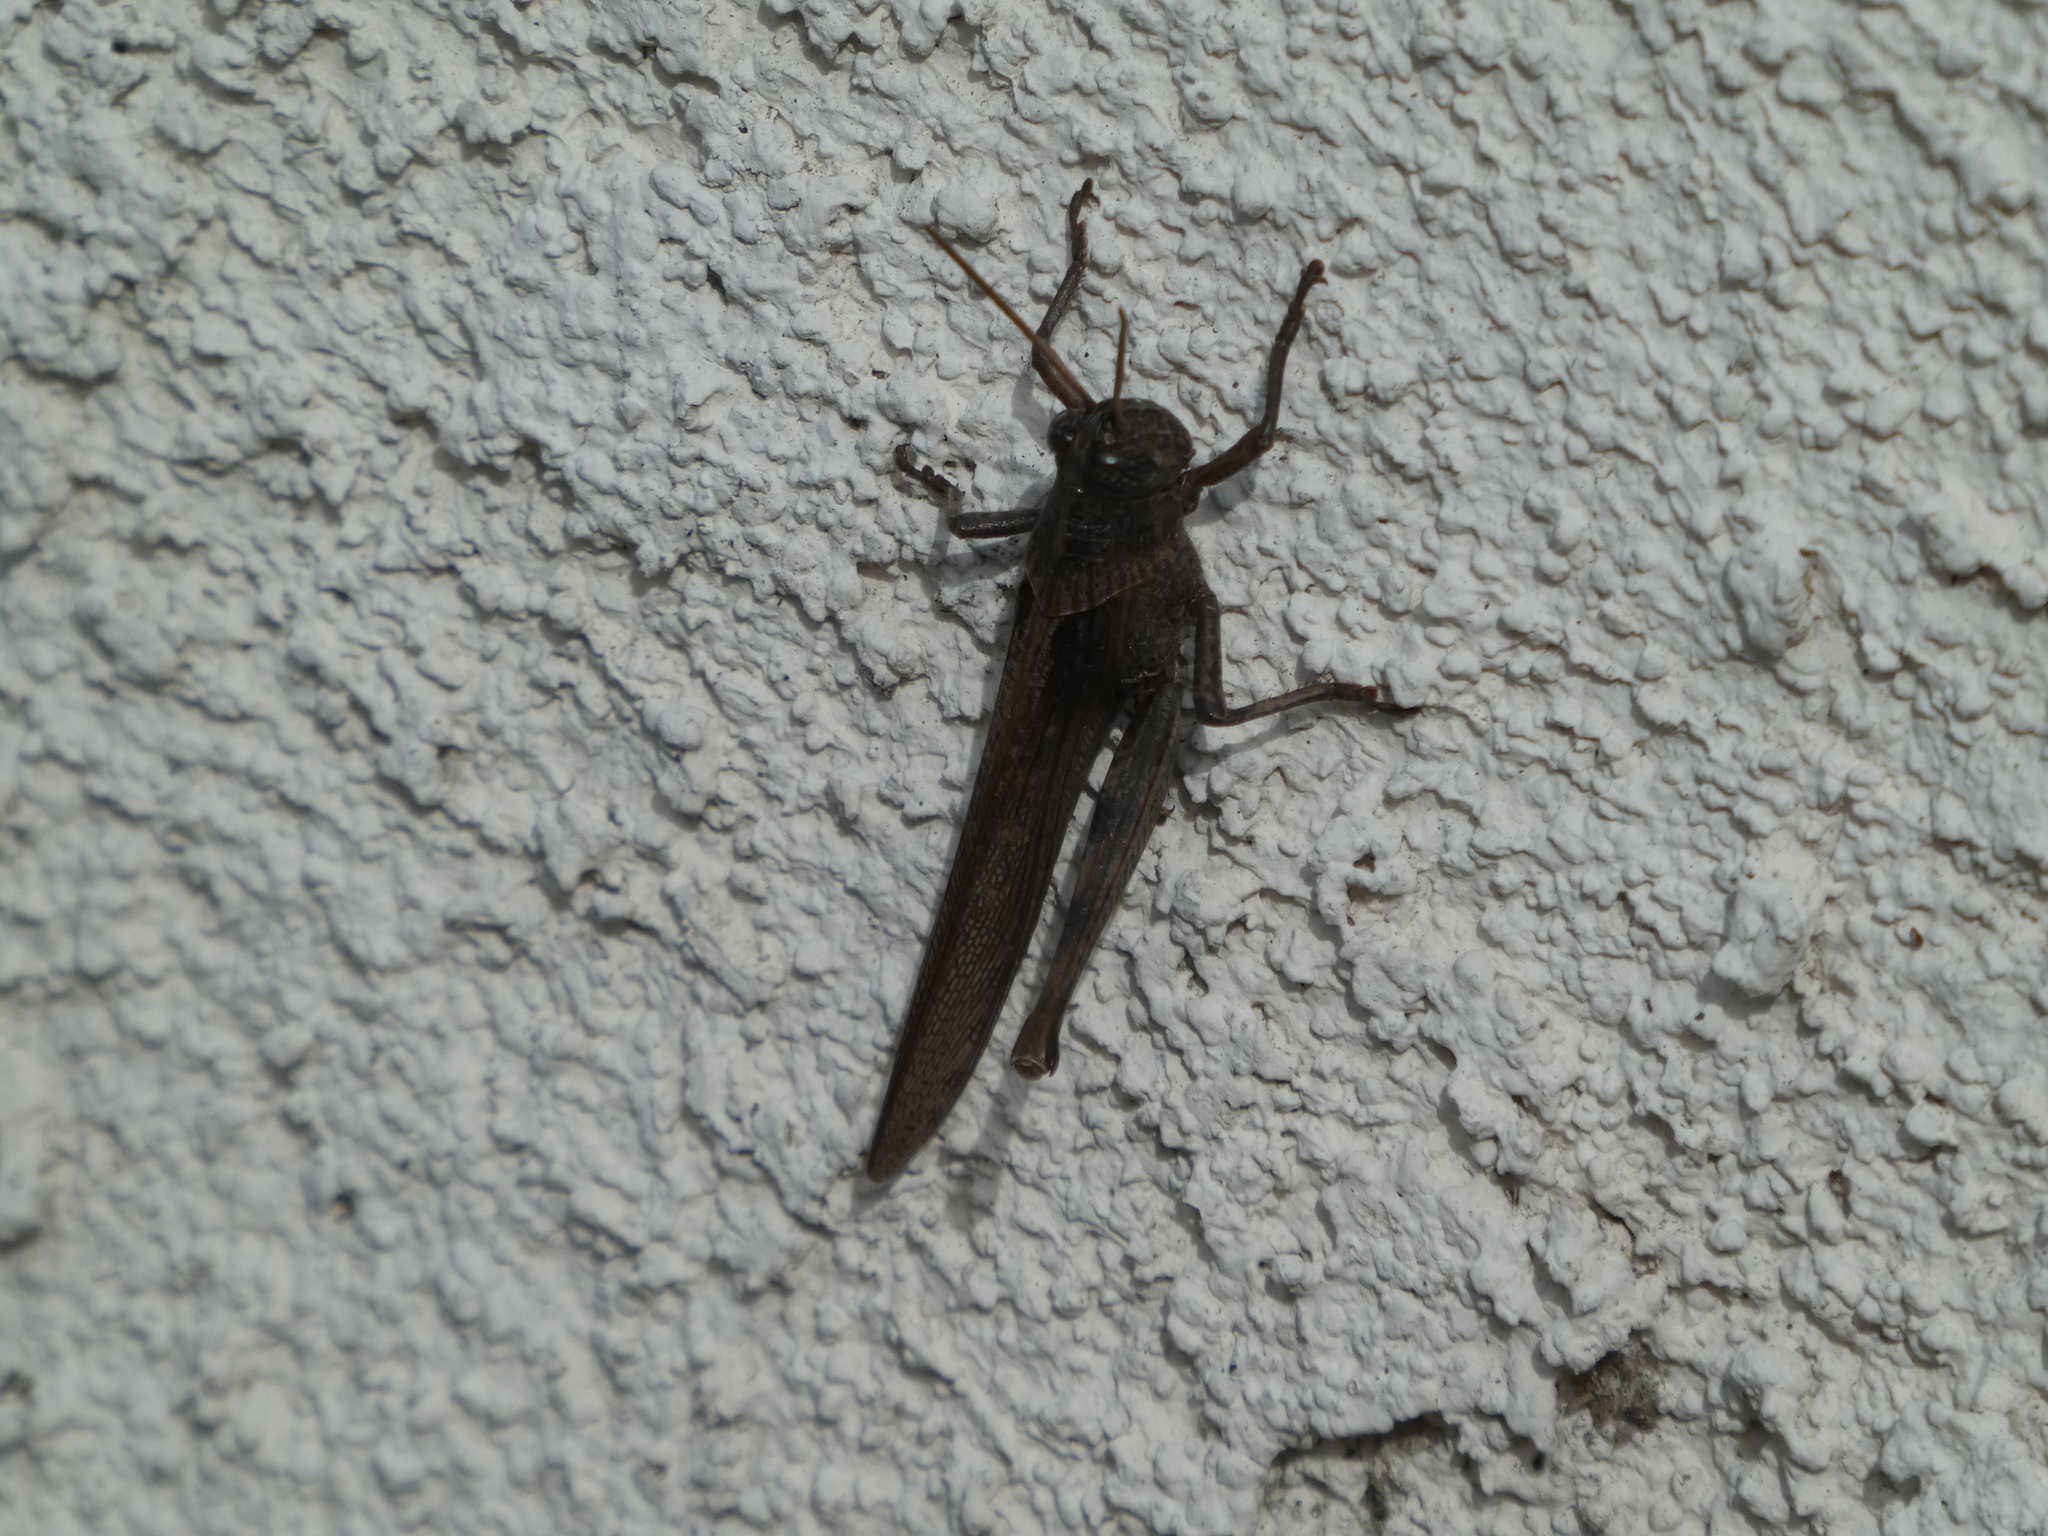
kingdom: Animalia
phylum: Arthropoda
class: Insecta
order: Orthoptera
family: Acrididae
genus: Schistocerca
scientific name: Schistocerca nitens
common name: Vagrant grasshopper
